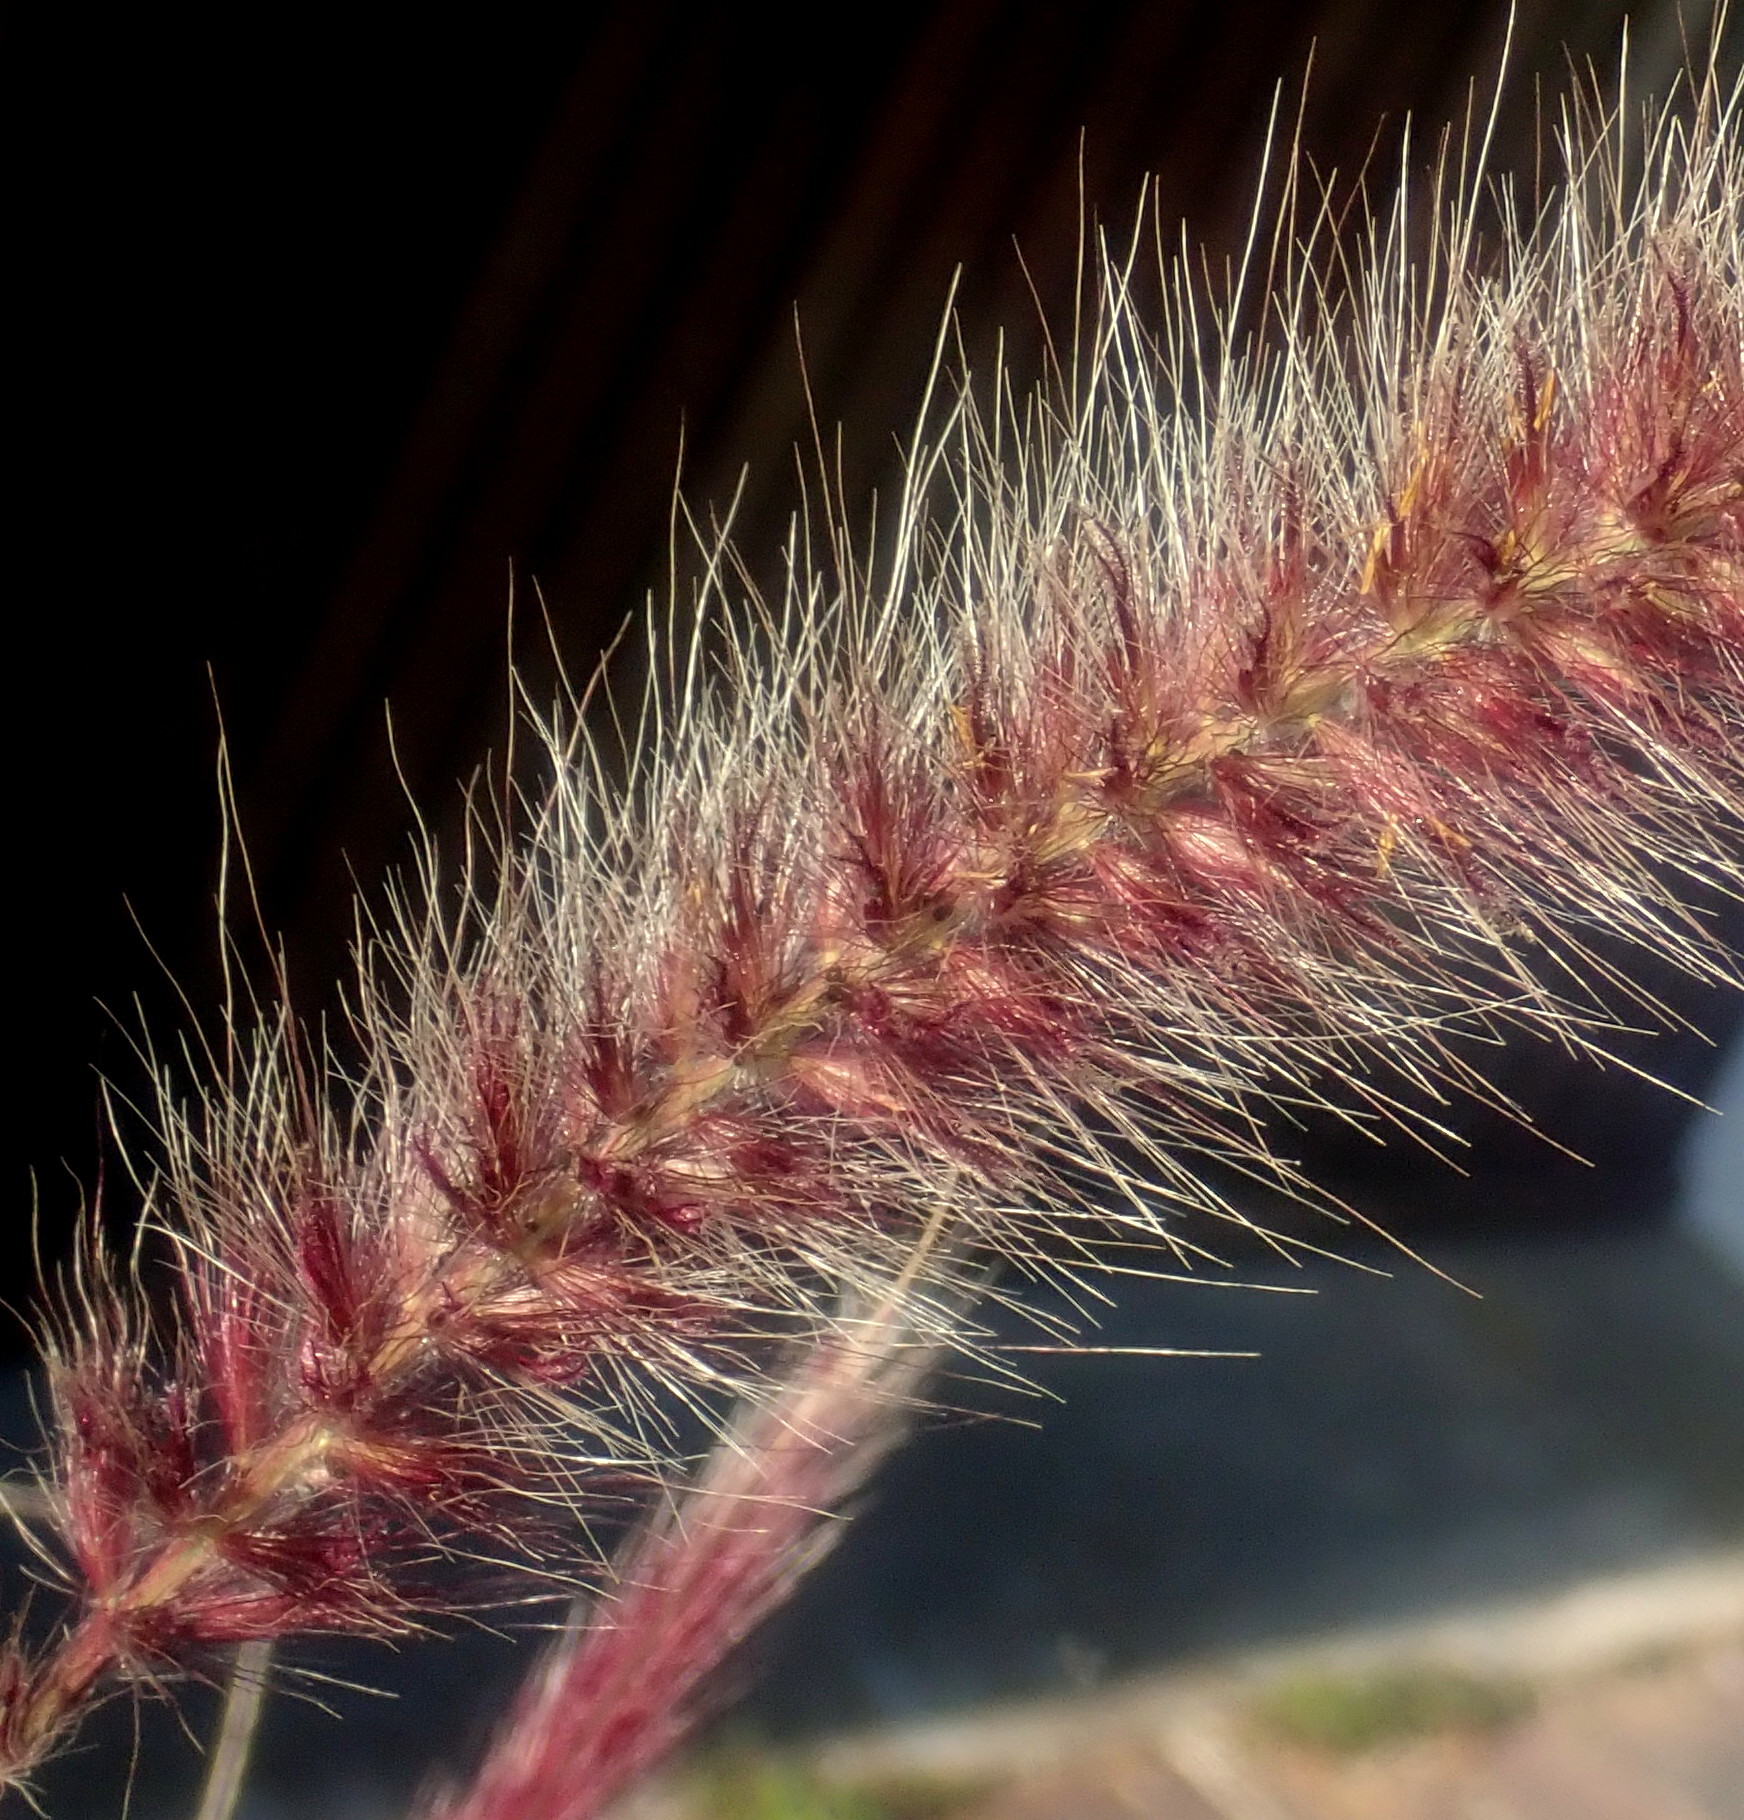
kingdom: Plantae
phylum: Tracheophyta
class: Liliopsida
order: Poales
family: Poaceae
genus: Cenchrus
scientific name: Cenchrus setaceus
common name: Crimson fountaingrass
